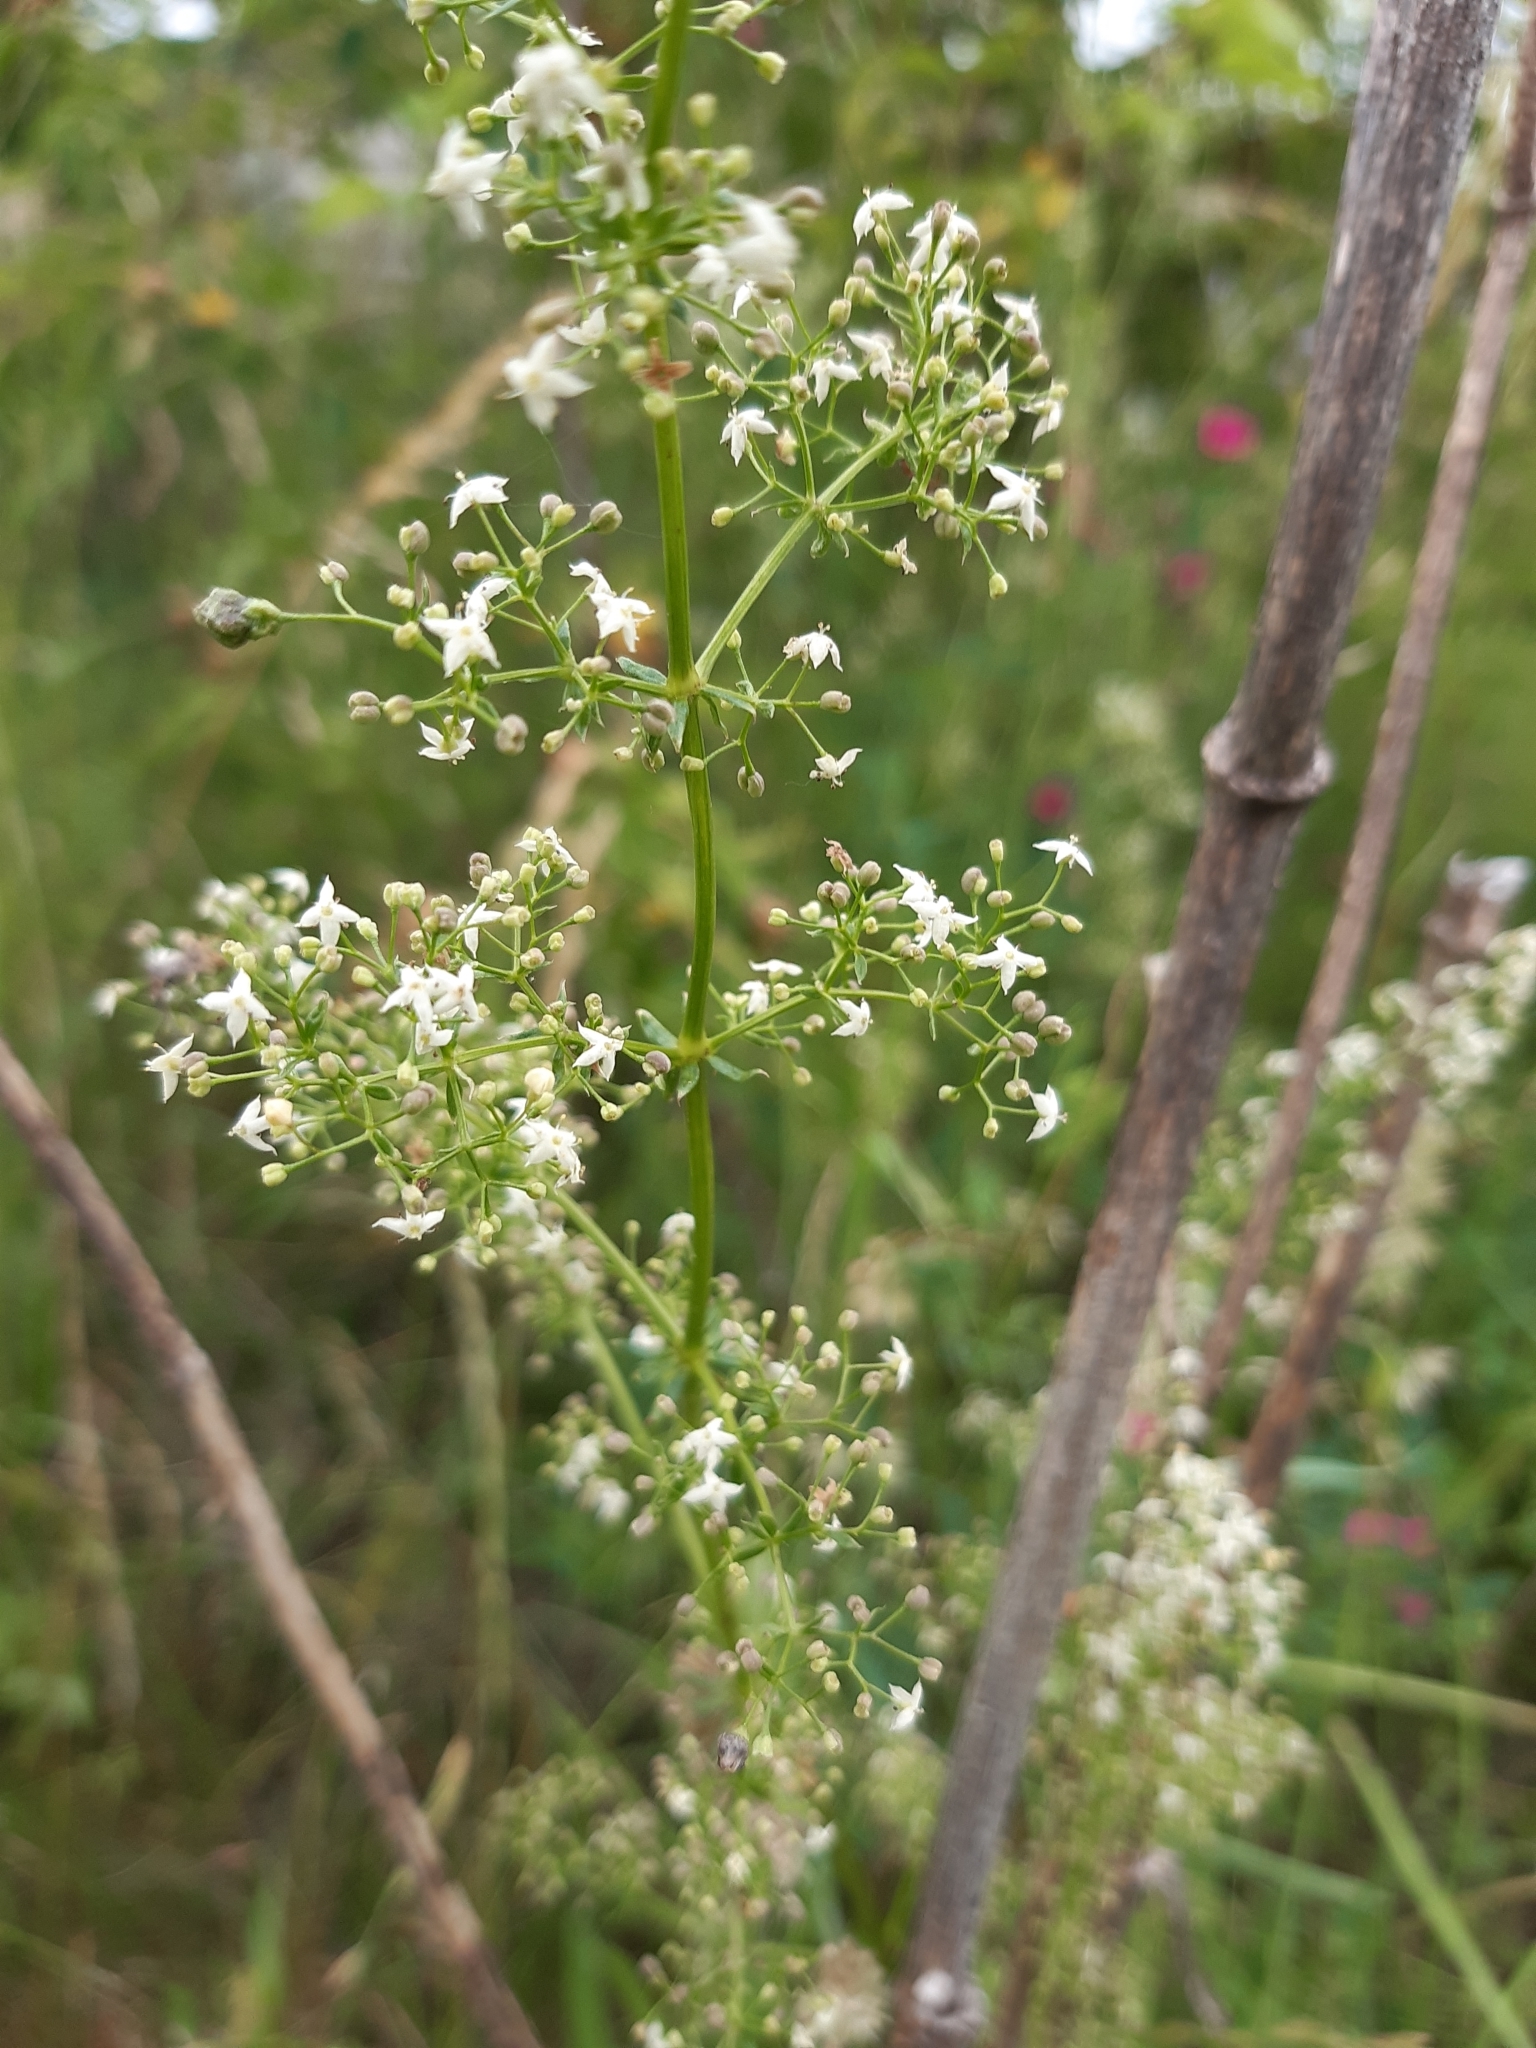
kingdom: Plantae
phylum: Tracheophyta
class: Magnoliopsida
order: Gentianales
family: Rubiaceae
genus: Galium
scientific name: Galium album
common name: White bedstraw
